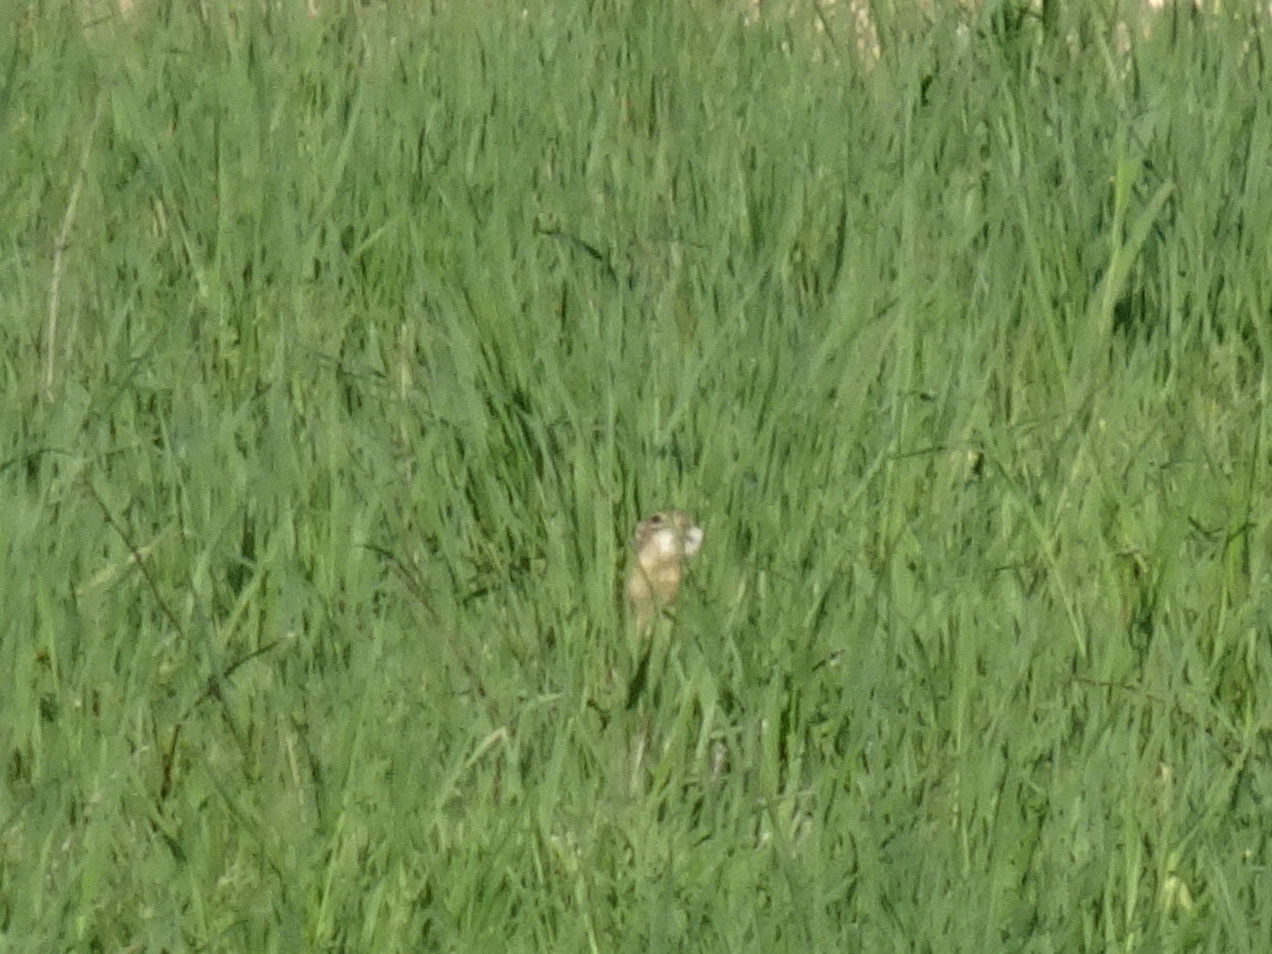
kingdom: Animalia
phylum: Chordata
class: Mammalia
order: Rodentia
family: Sciuridae
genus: Ictidomys
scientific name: Ictidomys tridecemlineatus
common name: Thirteen-lined ground squirrel
